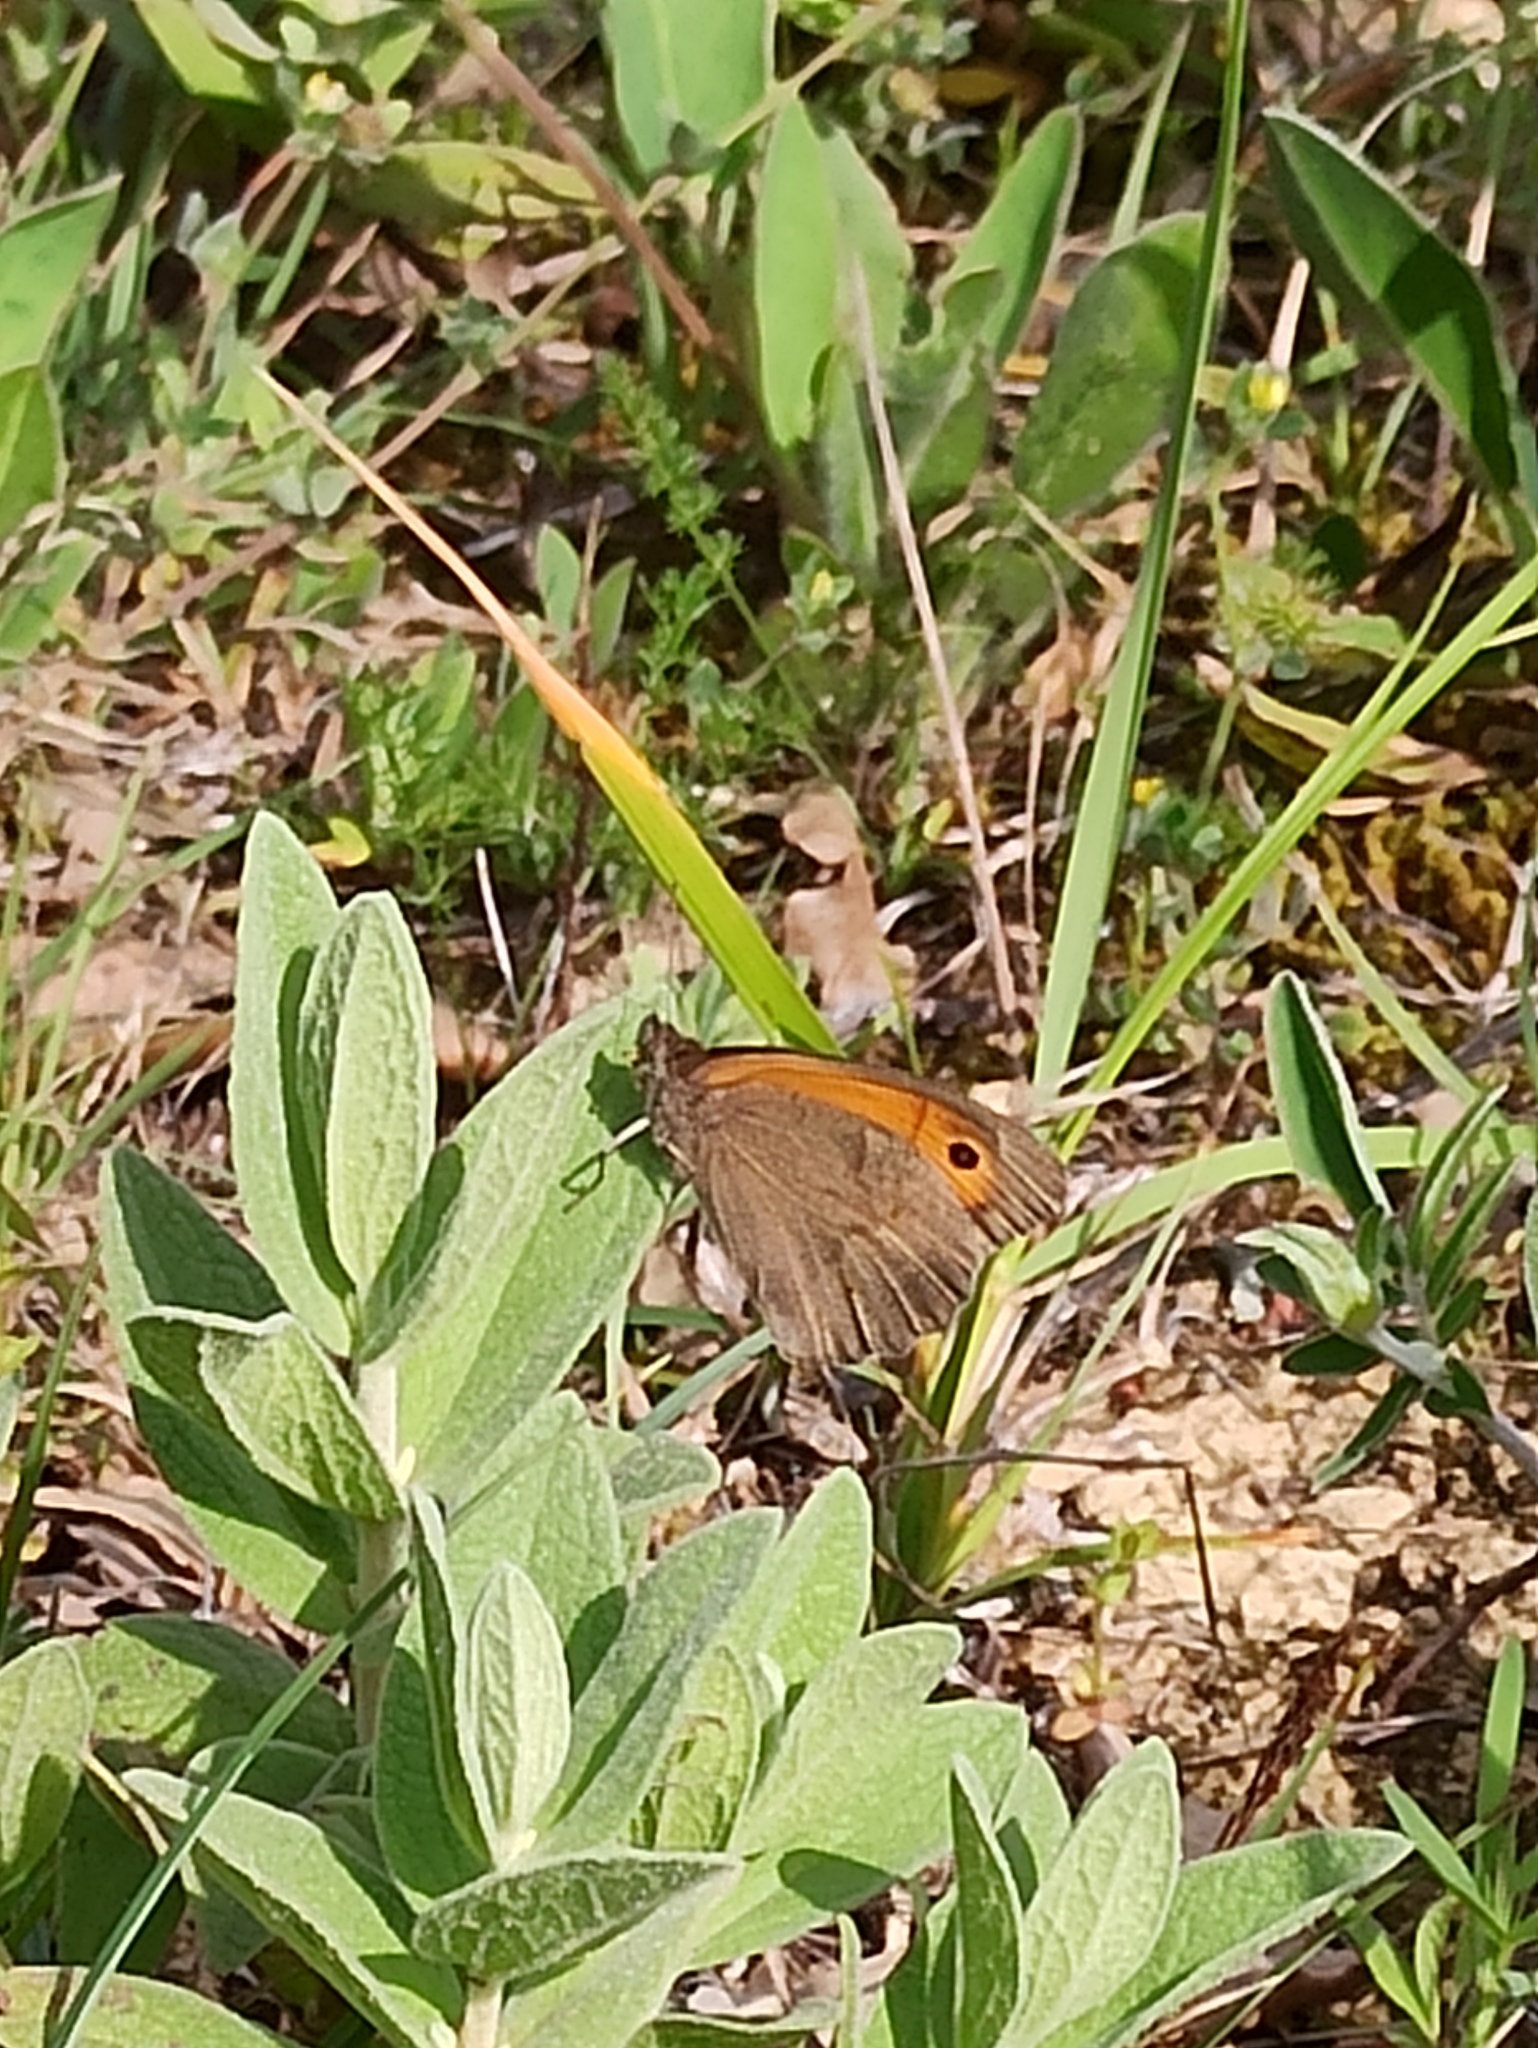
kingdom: Animalia
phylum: Arthropoda
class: Insecta
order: Lepidoptera
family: Nymphalidae
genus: Maniola
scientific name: Maniola jurtina
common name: Meadow brown
